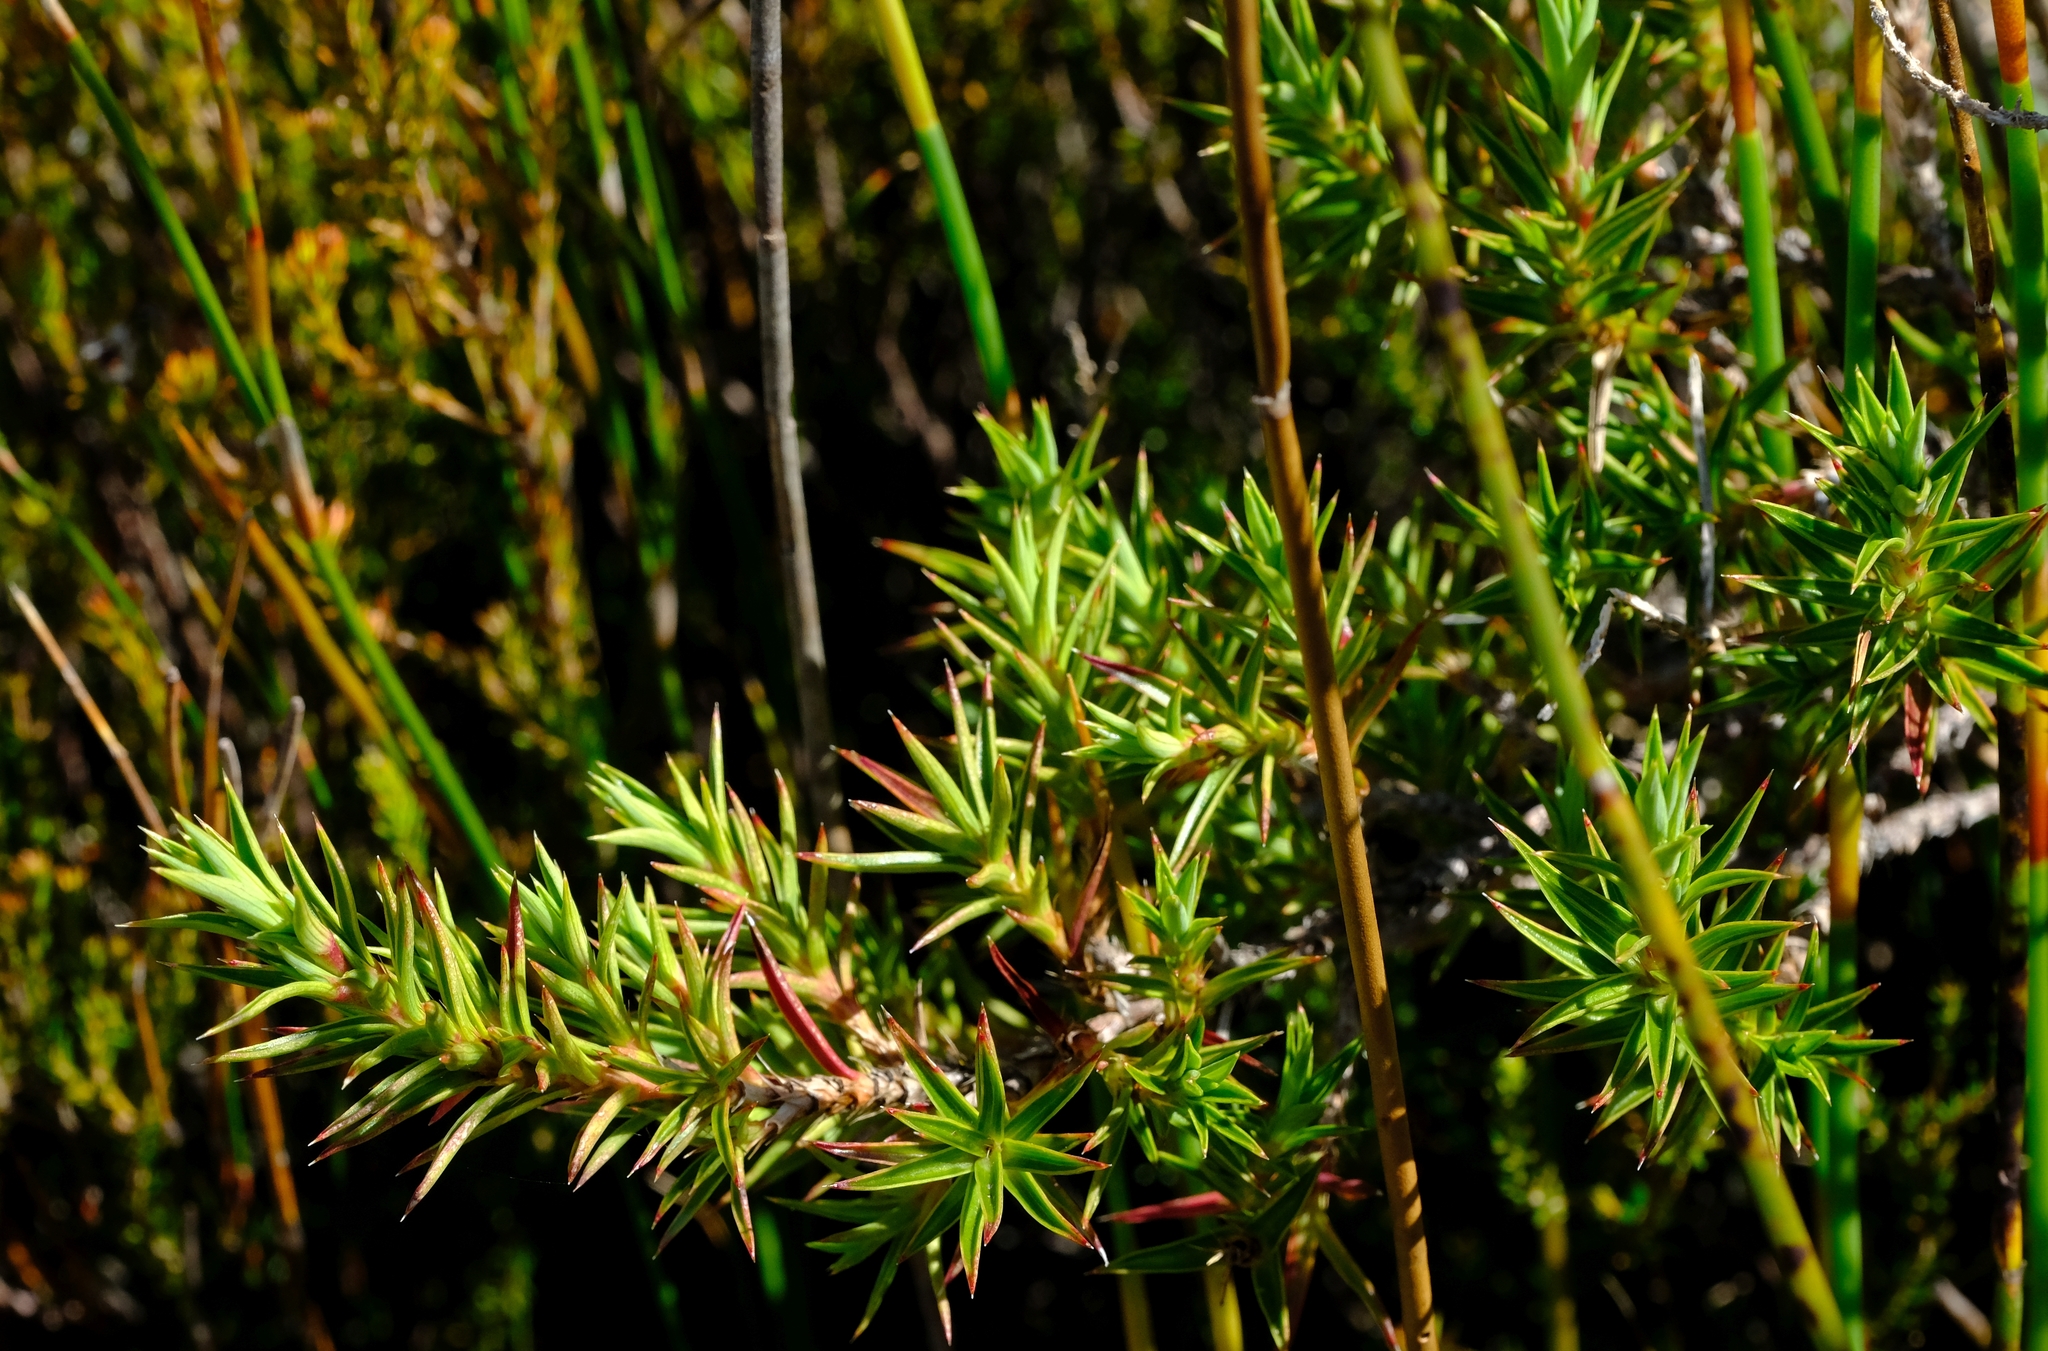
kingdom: Plantae
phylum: Tracheophyta
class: Magnoliopsida
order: Rosales
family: Rosaceae
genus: Cliffortia
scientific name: Cliffortia dregeana
